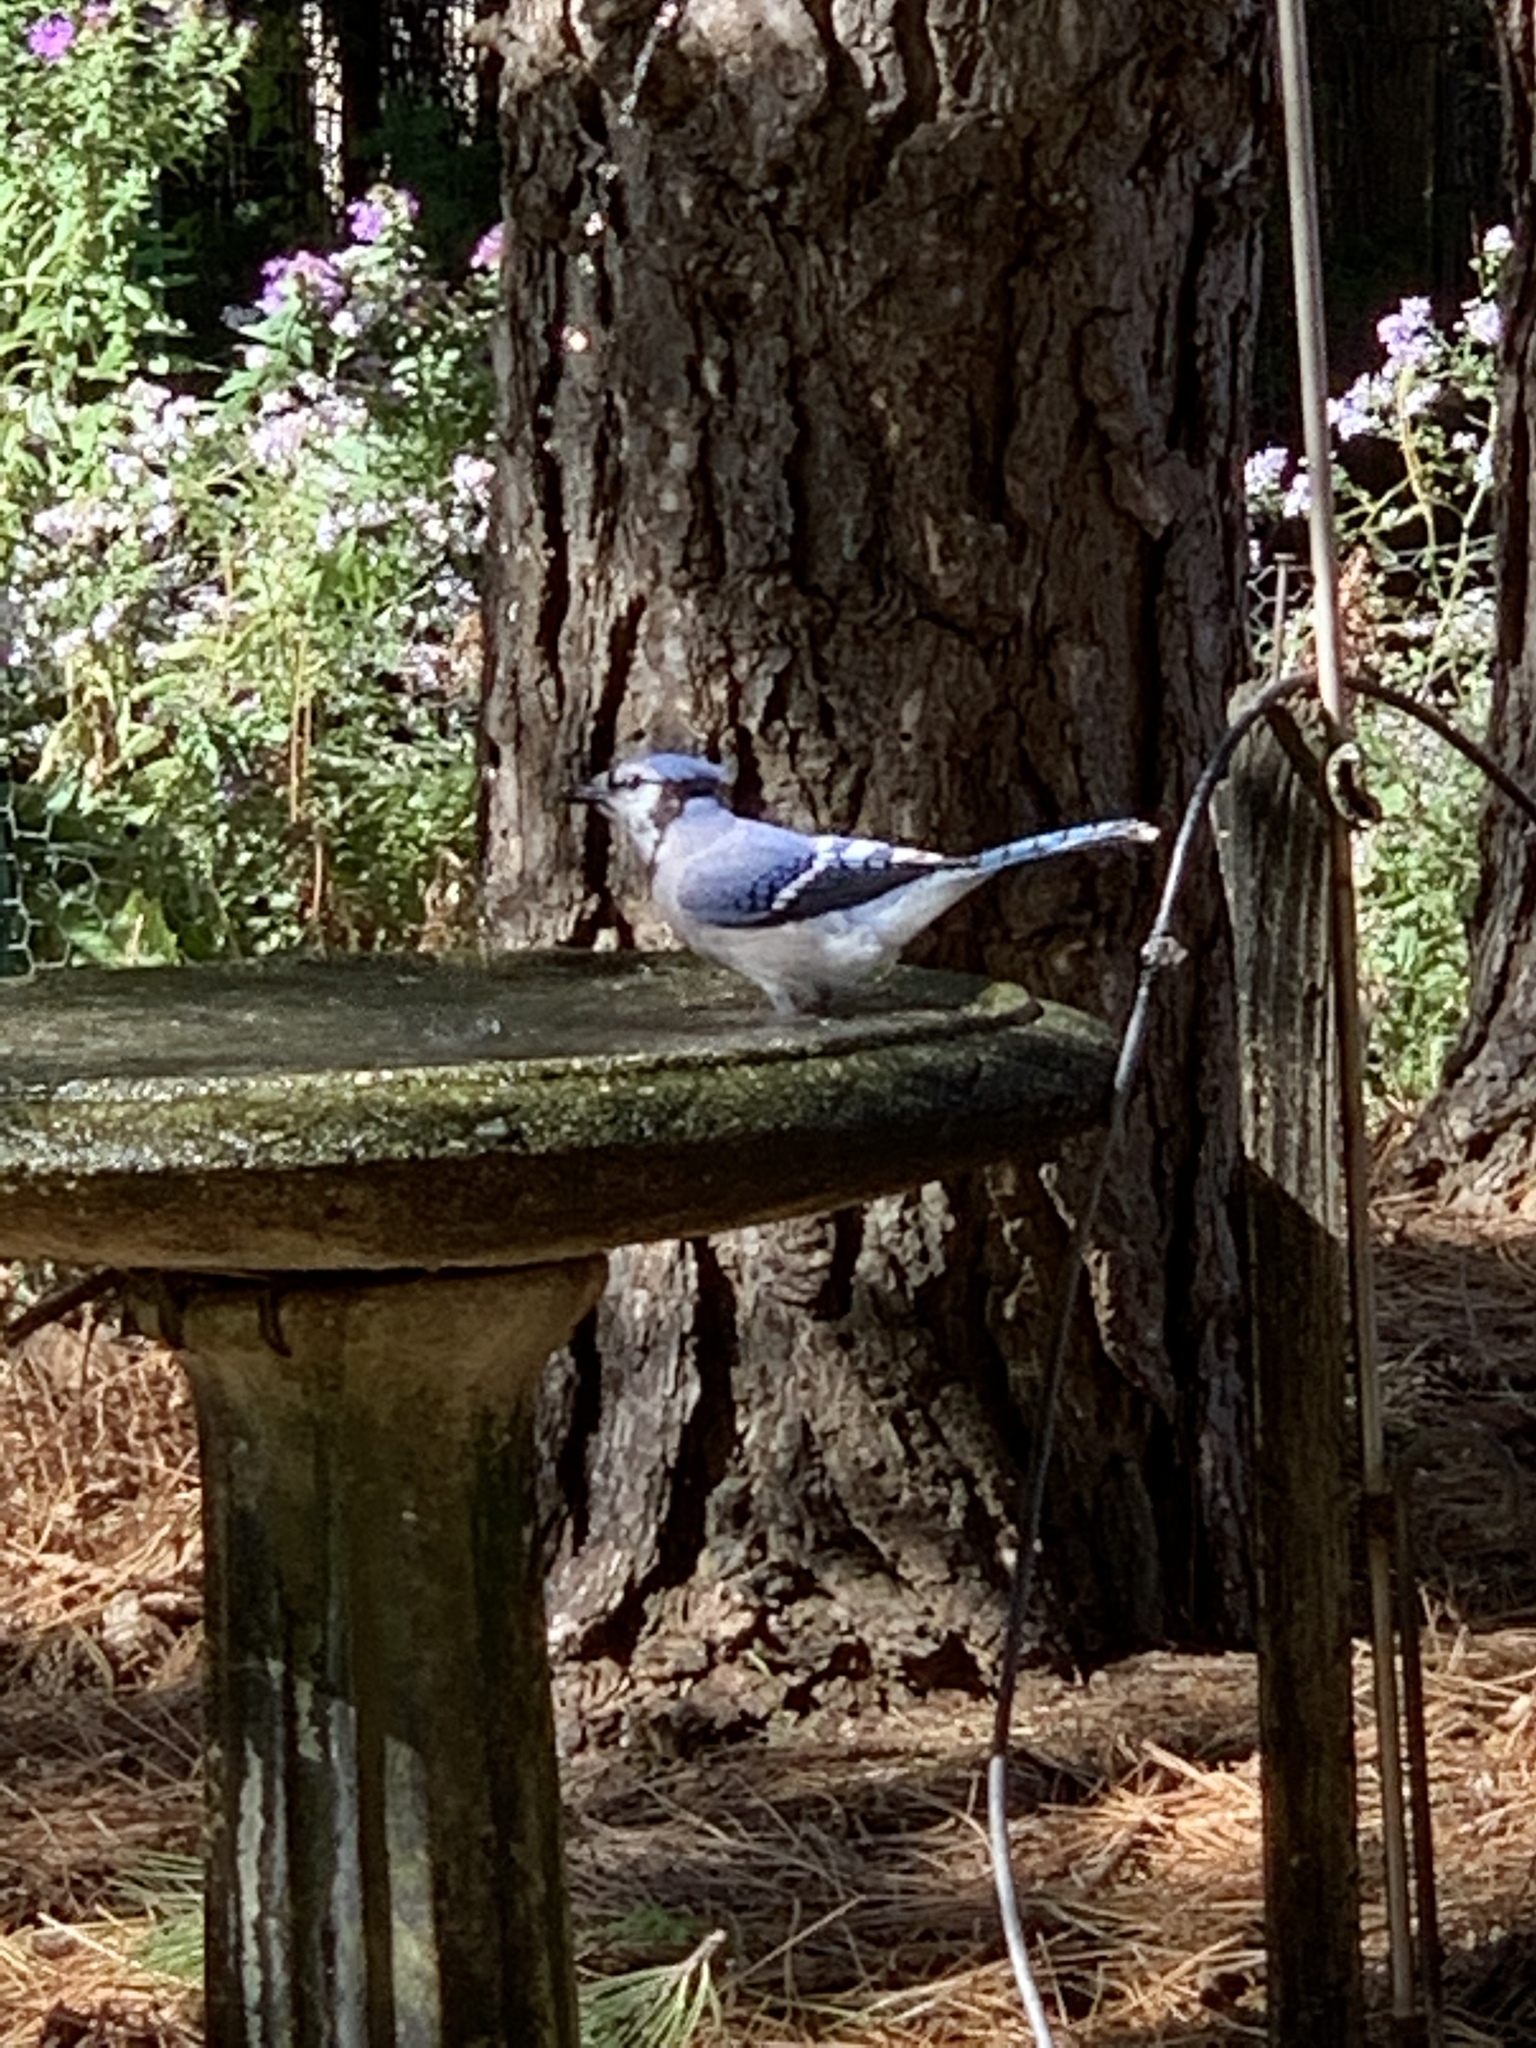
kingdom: Animalia
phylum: Chordata
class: Aves
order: Passeriformes
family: Corvidae
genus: Cyanocitta
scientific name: Cyanocitta cristata
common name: Blue jay
